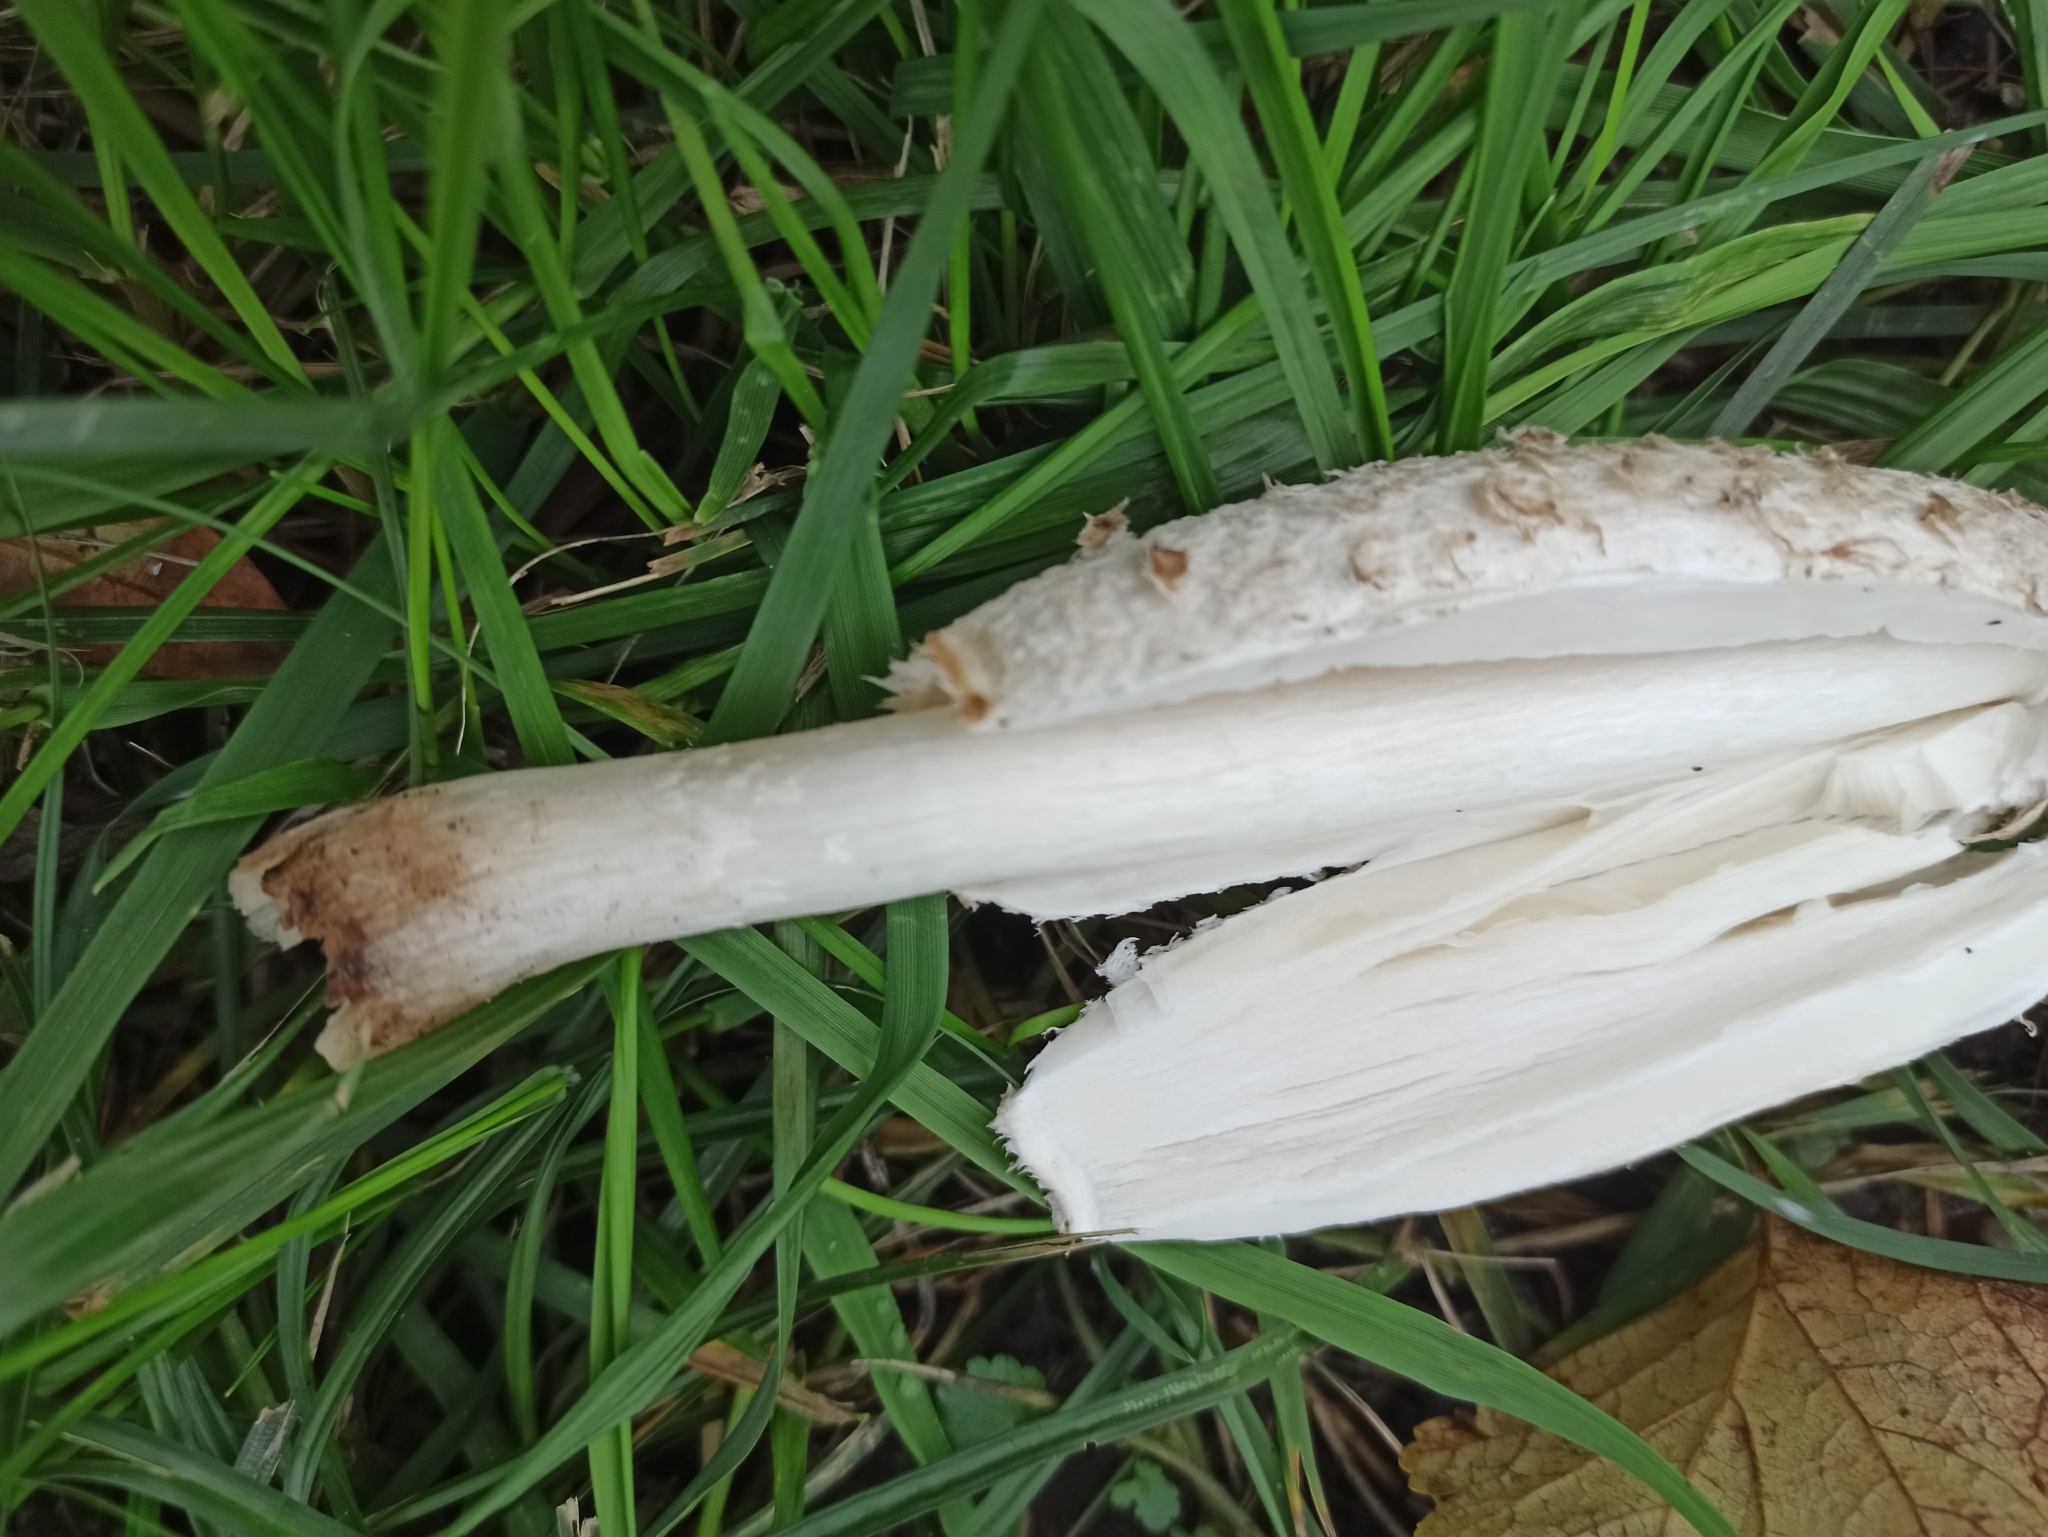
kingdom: Fungi
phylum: Basidiomycota
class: Agaricomycetes
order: Agaricales
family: Agaricaceae
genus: Coprinus
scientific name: Coprinus comatus
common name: Lawyer's wig
